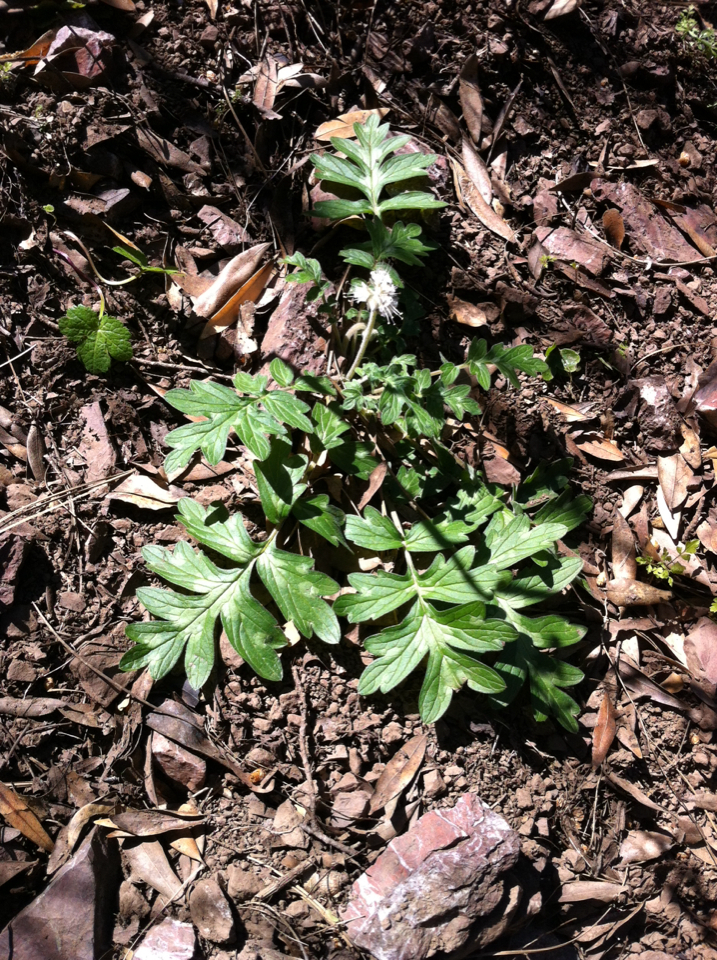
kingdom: Plantae
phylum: Tracheophyta
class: Magnoliopsida
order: Boraginales
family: Hydrophyllaceae
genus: Hydrophyllum
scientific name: Hydrophyllum occidentale
